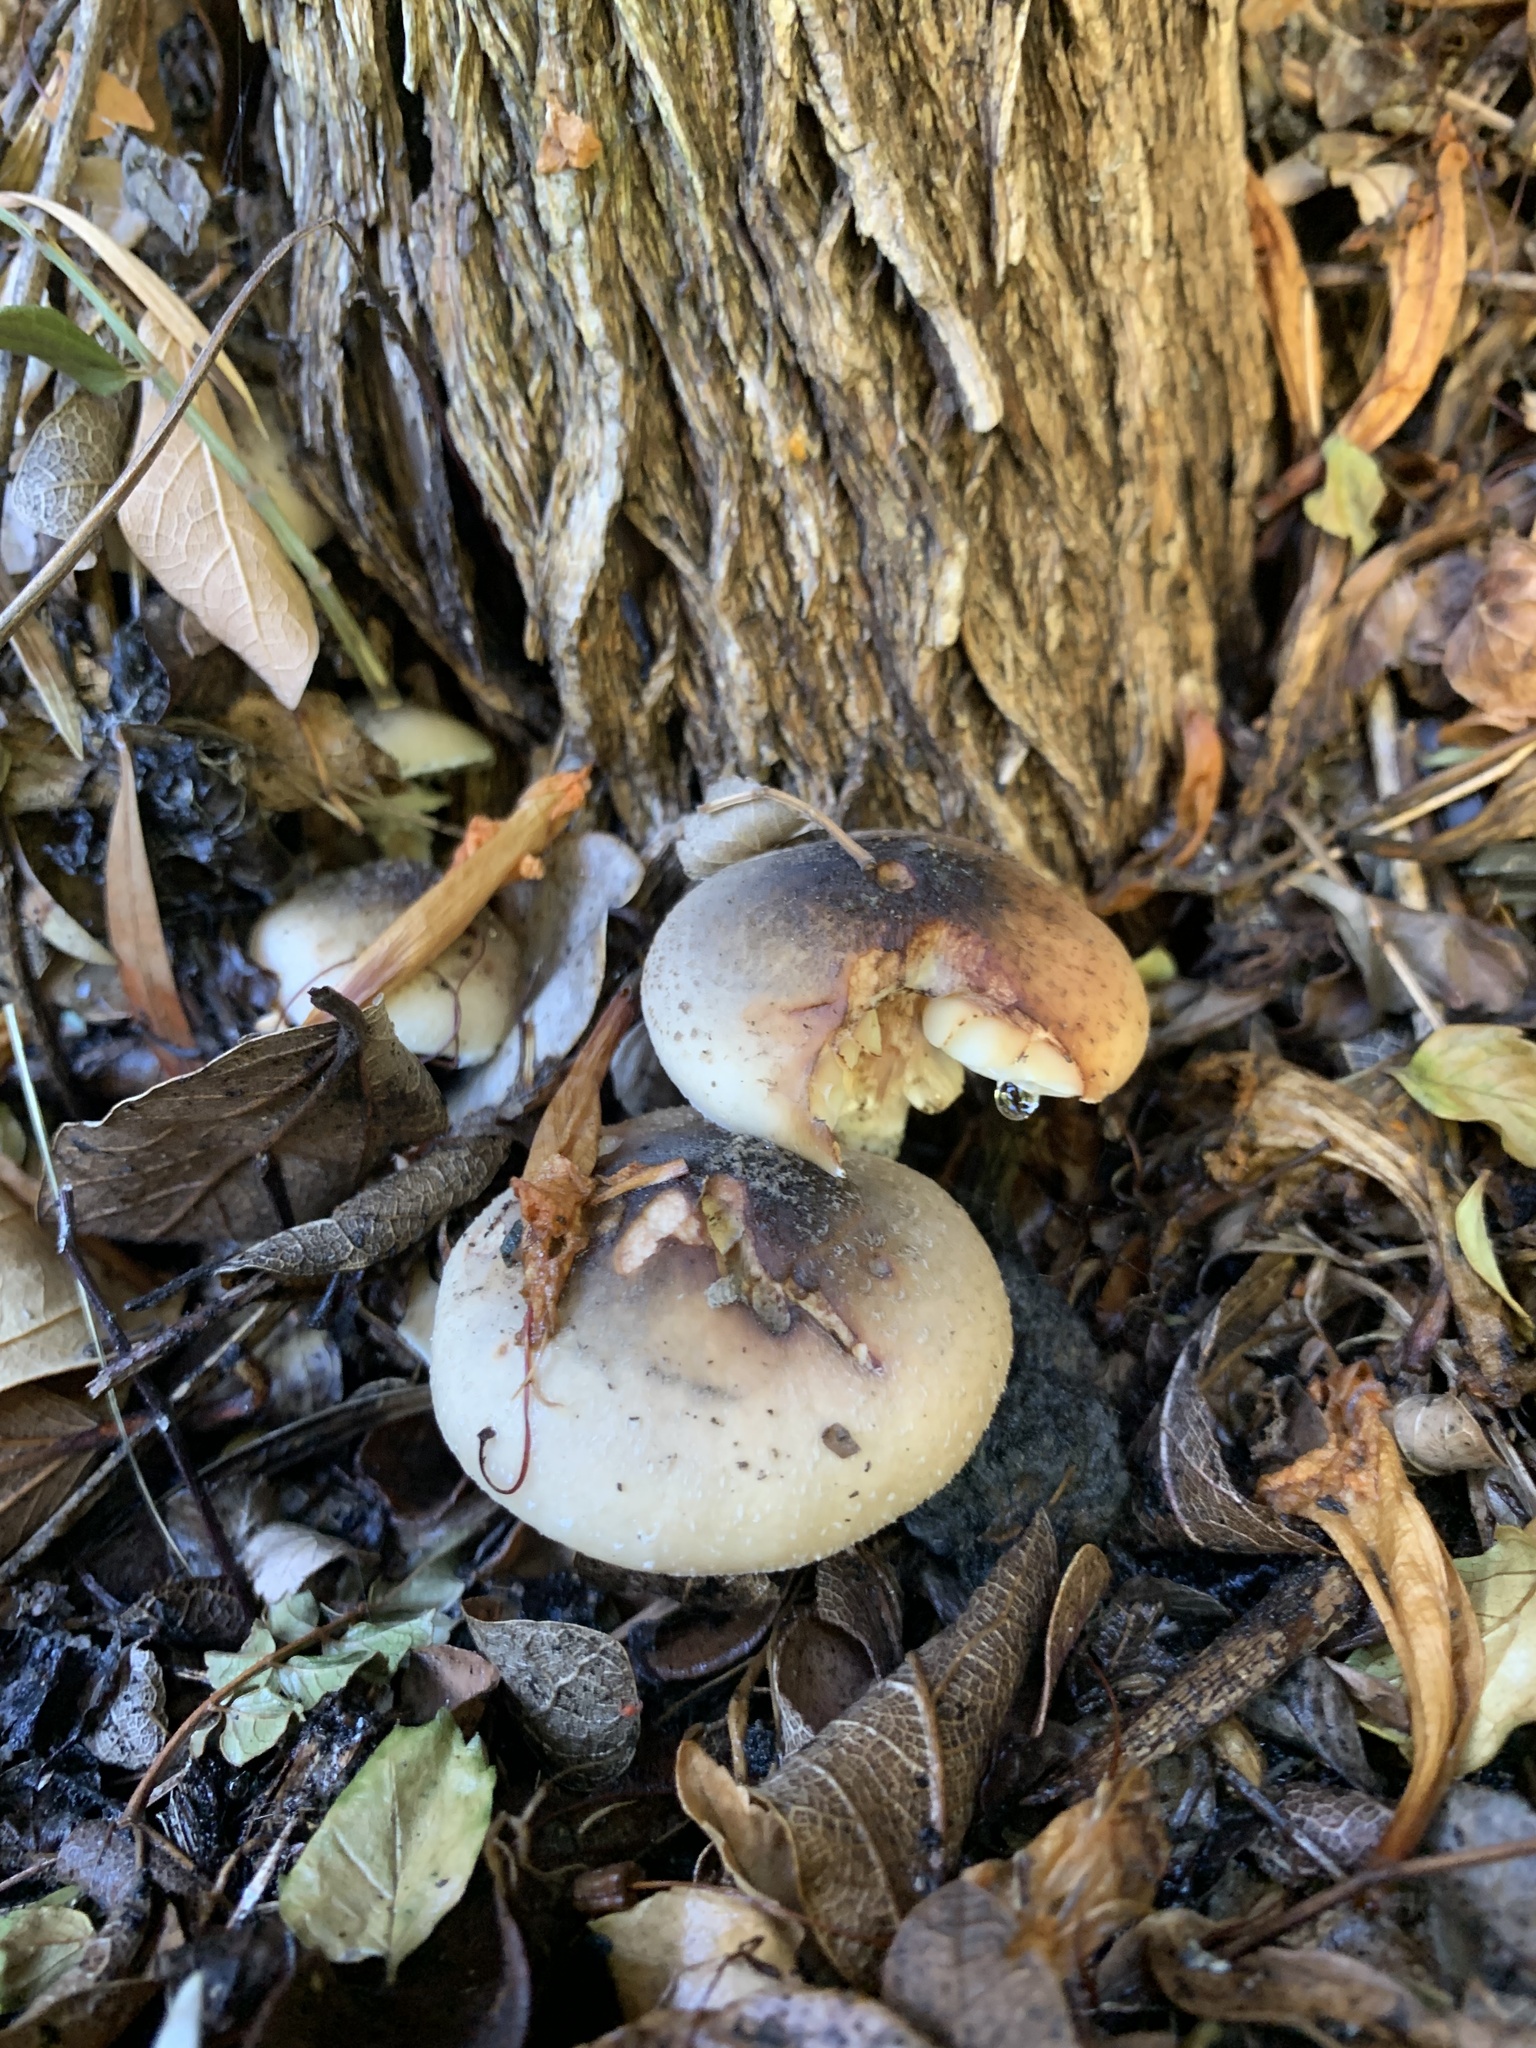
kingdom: Fungi
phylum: Basidiomycota
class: Agaricomycetes
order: Agaricales
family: Physalacriaceae
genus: Armillaria
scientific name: Armillaria mellea
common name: Honey fungus
